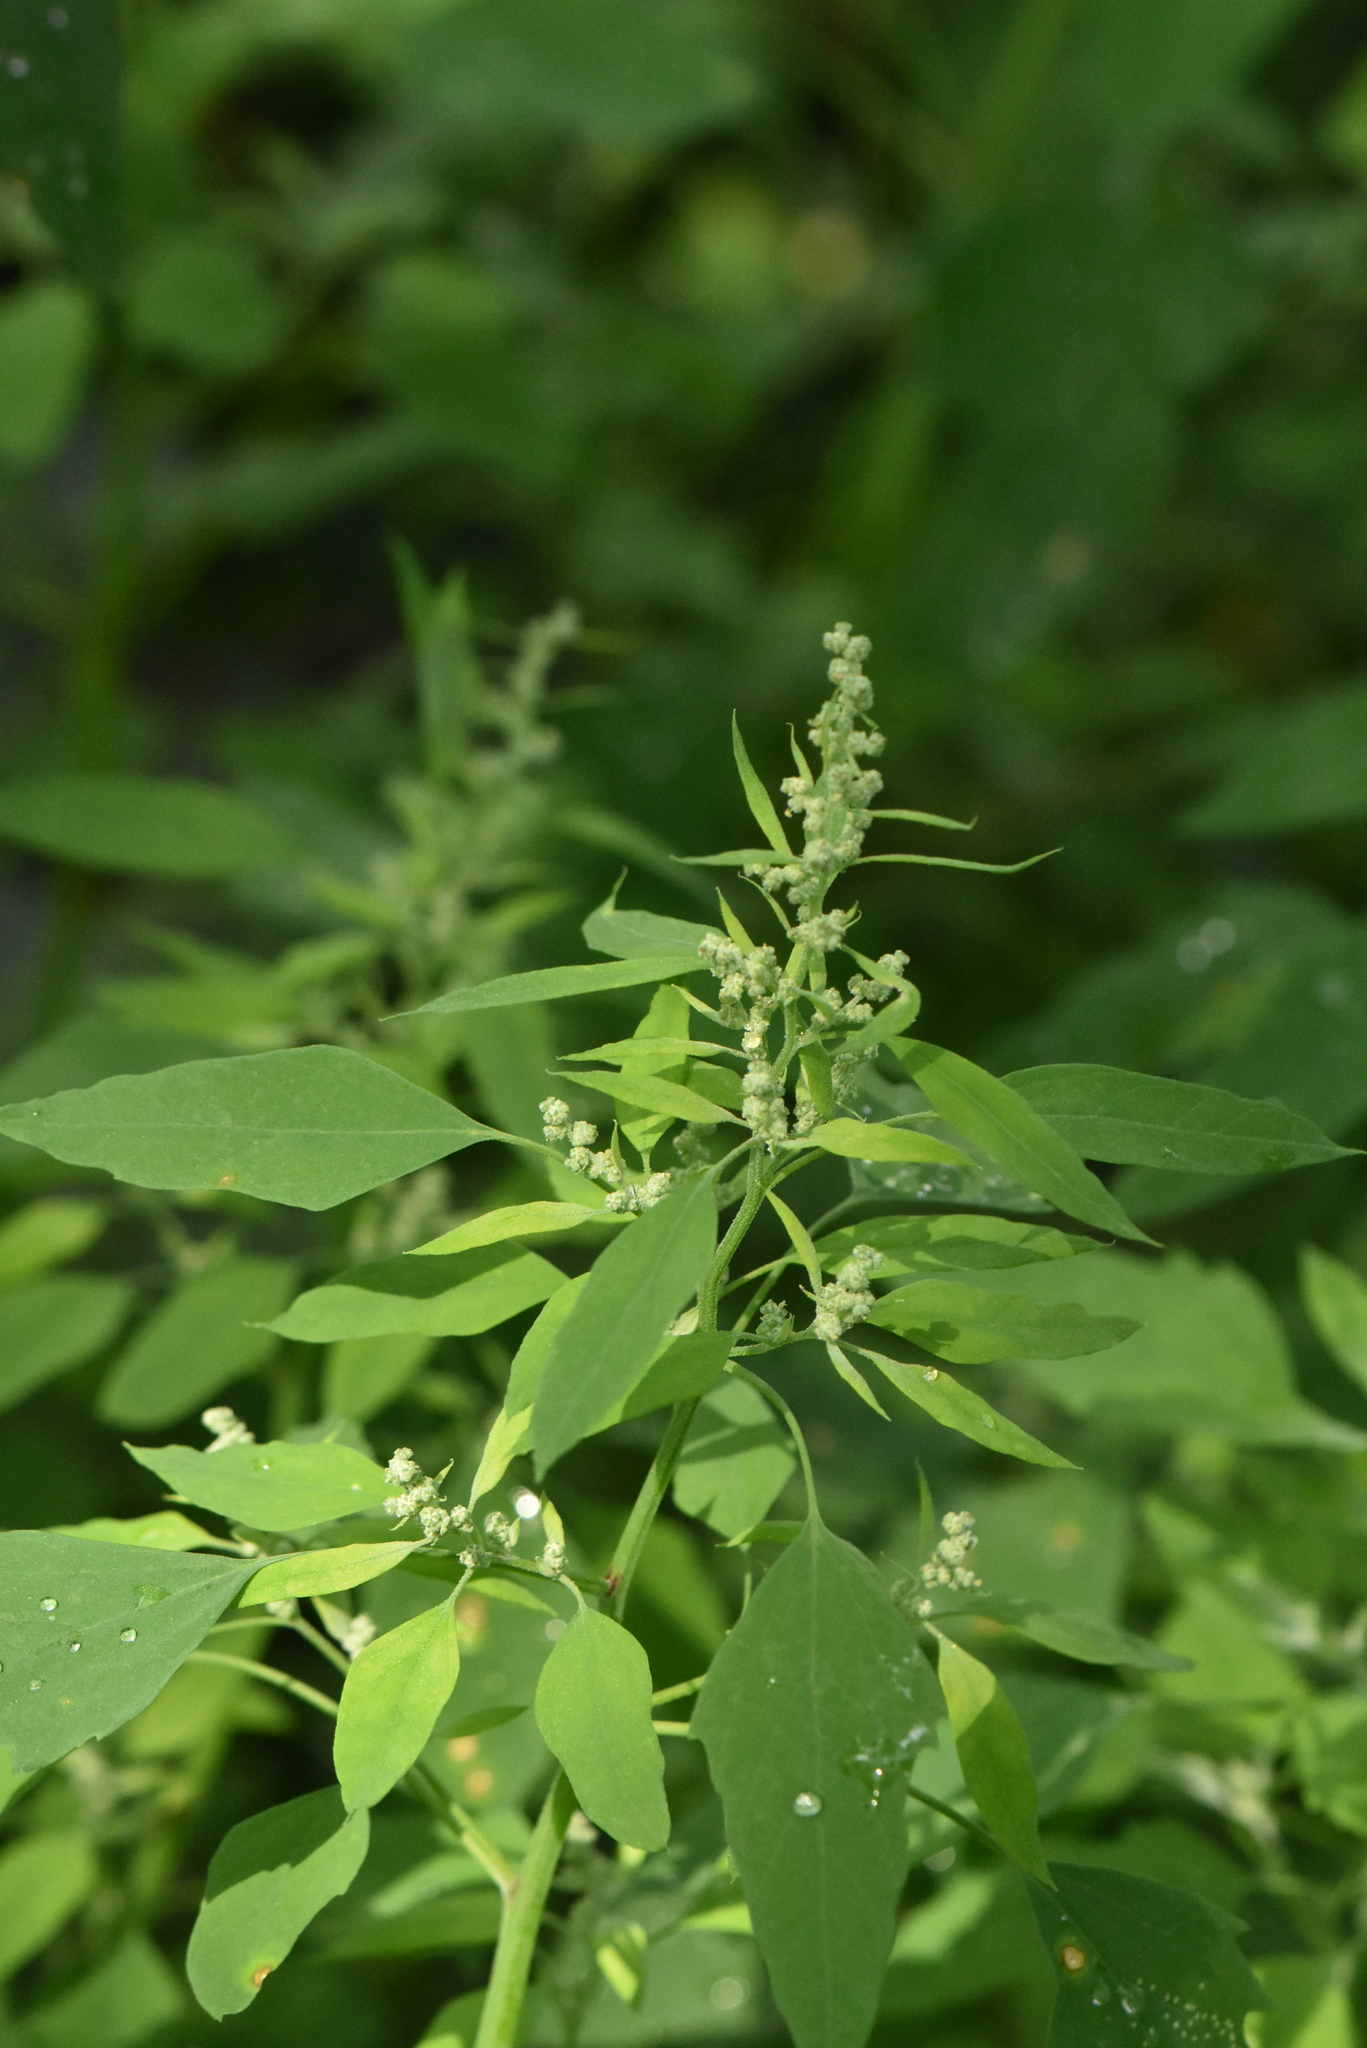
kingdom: Plantae
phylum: Tracheophyta
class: Magnoliopsida
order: Caryophyllales
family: Amaranthaceae
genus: Chenopodium
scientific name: Chenopodium album
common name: Fat-hen
